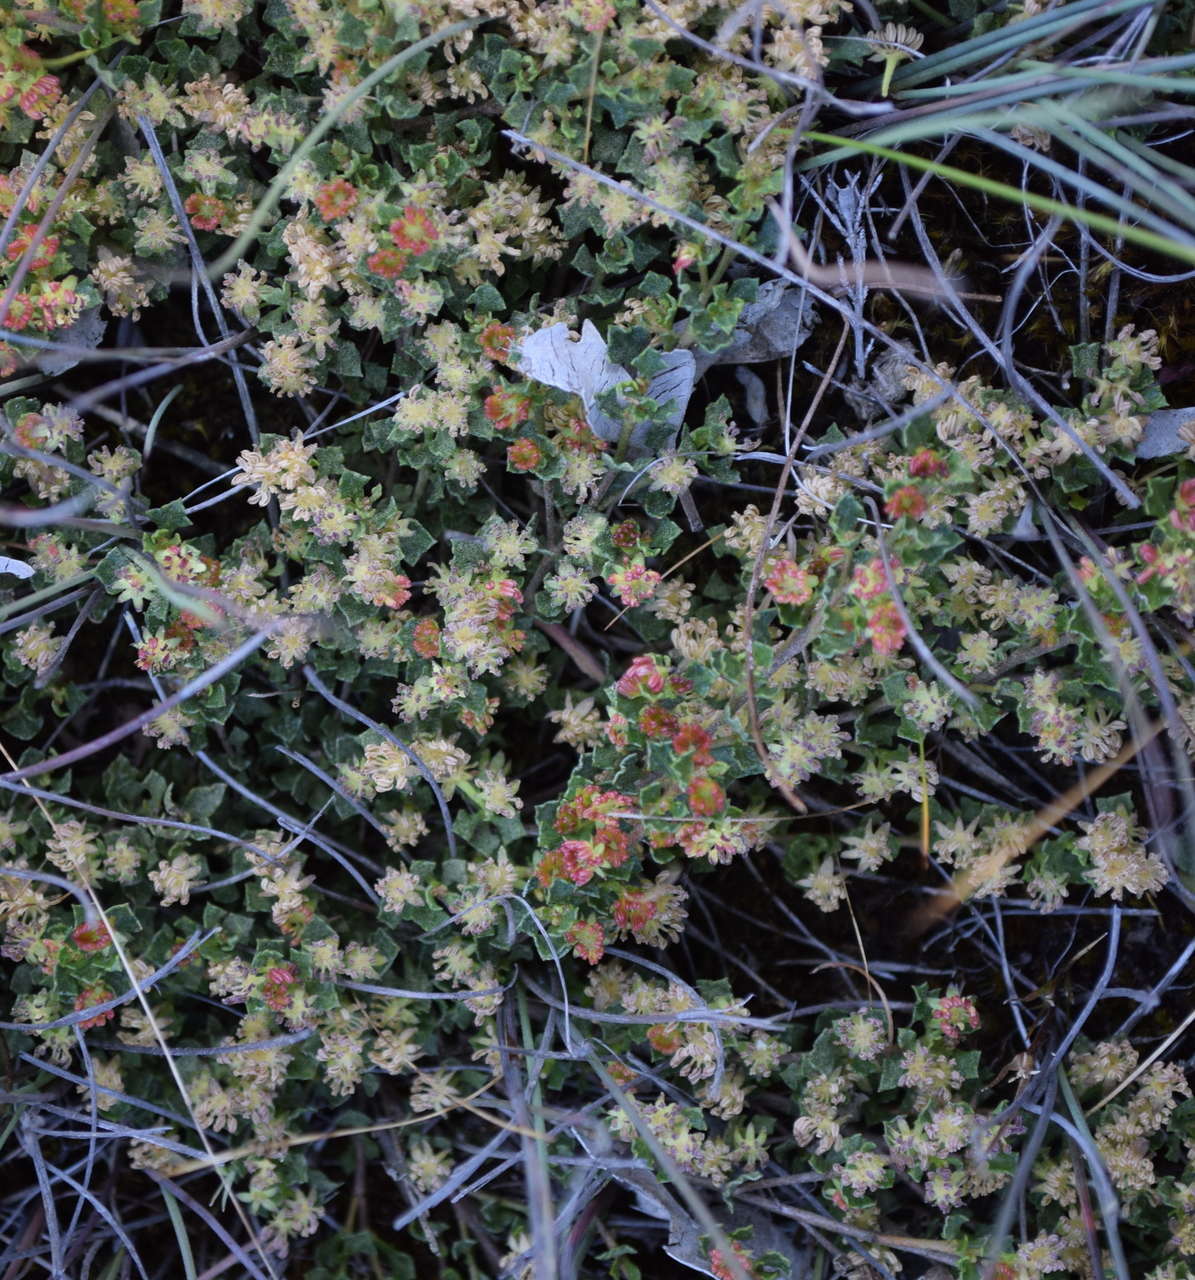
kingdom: Plantae
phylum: Tracheophyta
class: Magnoliopsida
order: Sapindales
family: Sapindaceae
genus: Dodonaea
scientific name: Dodonaea procumbens
